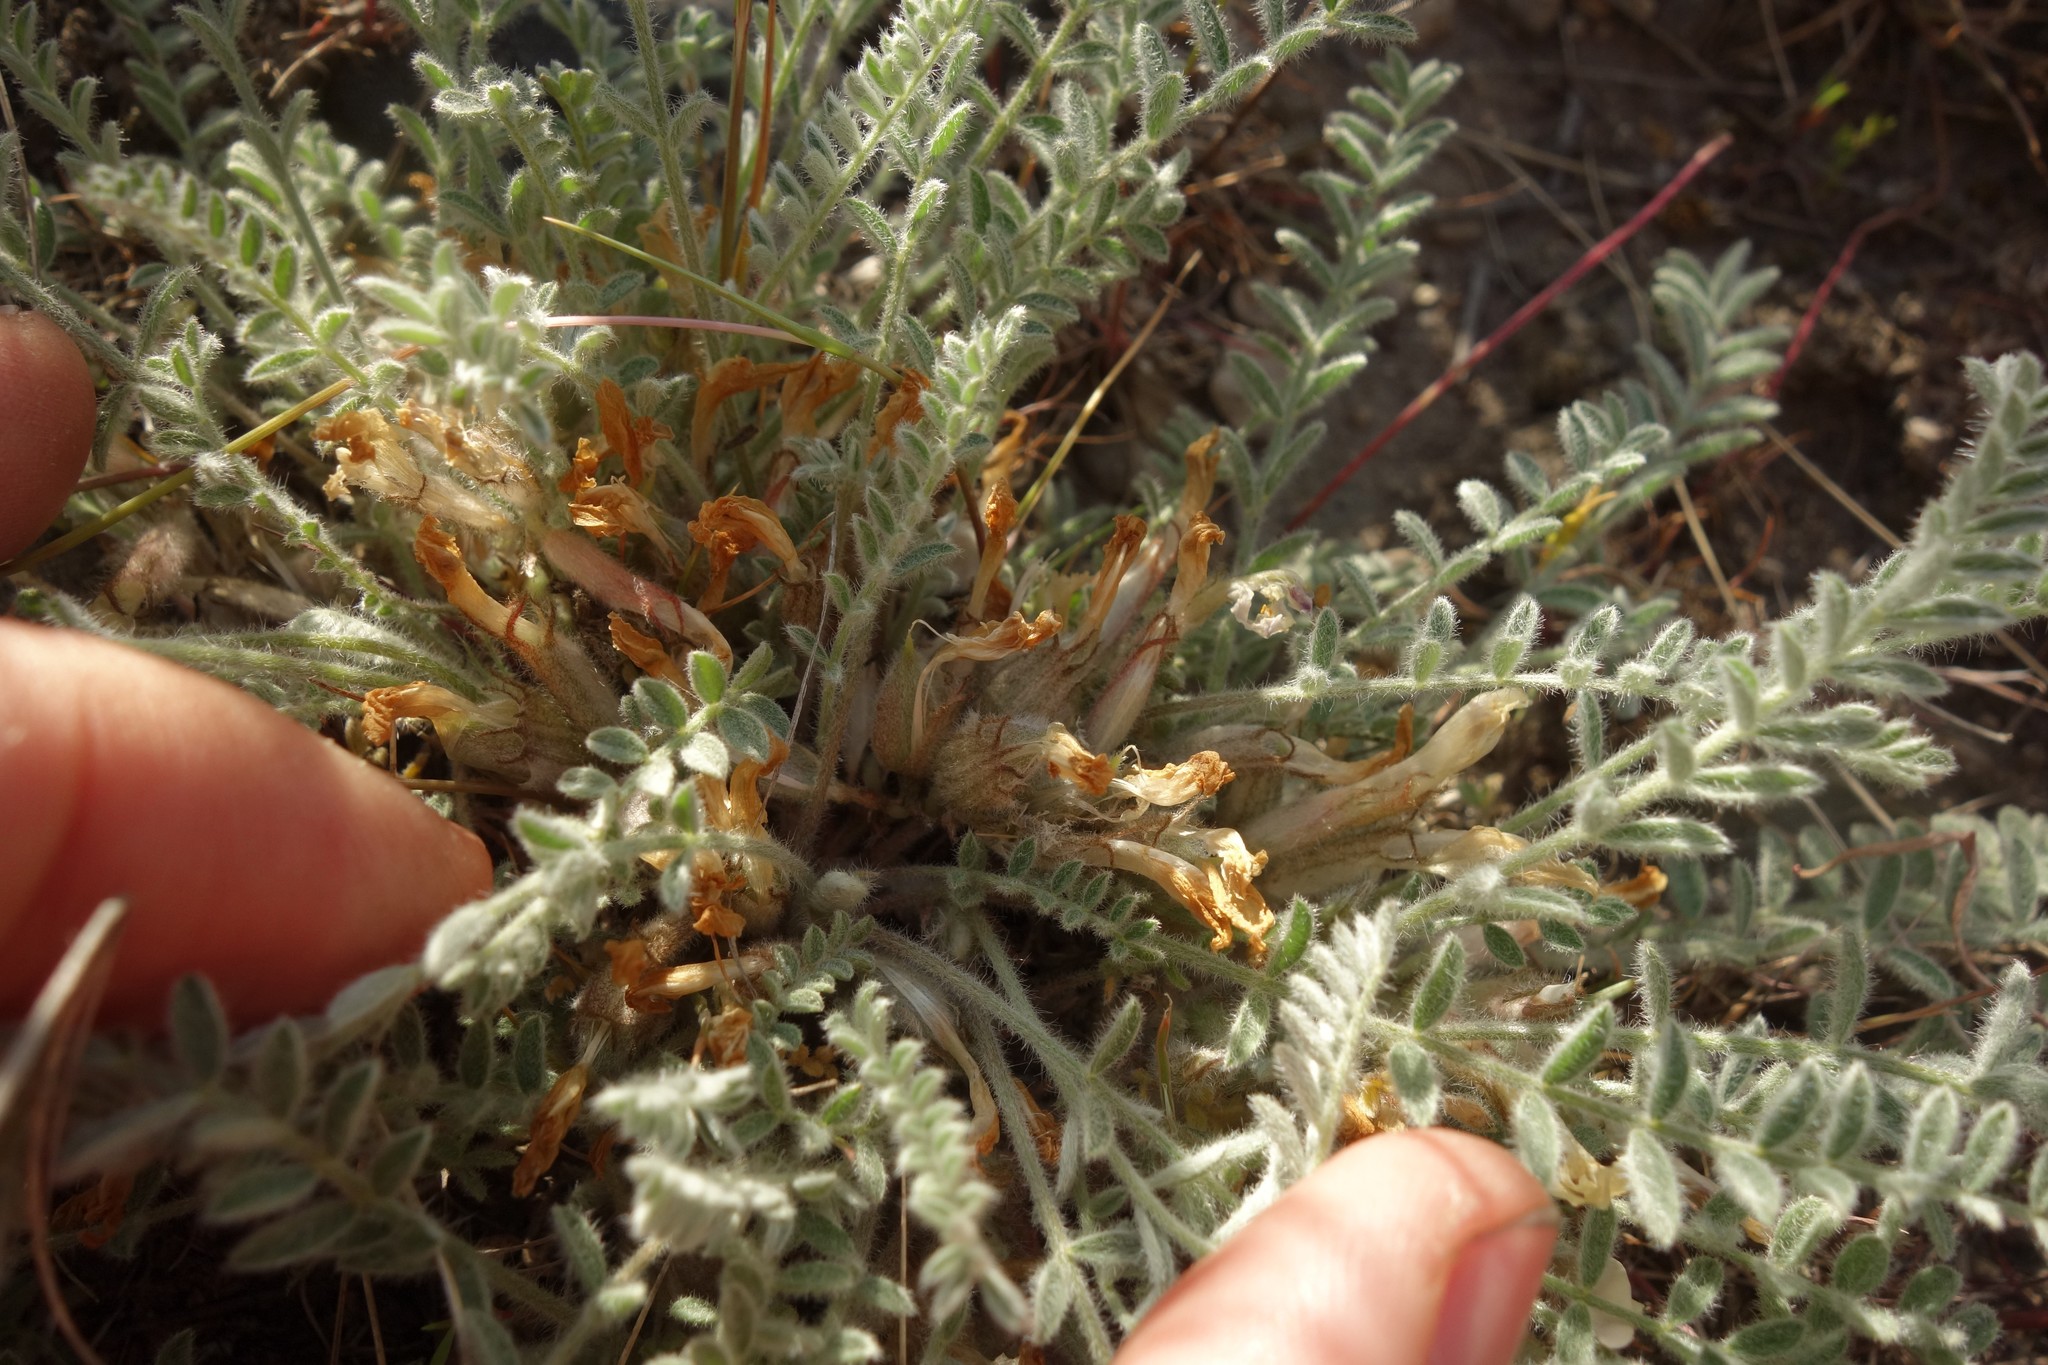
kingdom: Plantae
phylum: Tracheophyta
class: Magnoliopsida
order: Fabales
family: Fabaceae
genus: Astragalus
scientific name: Astragalus testiculatus
